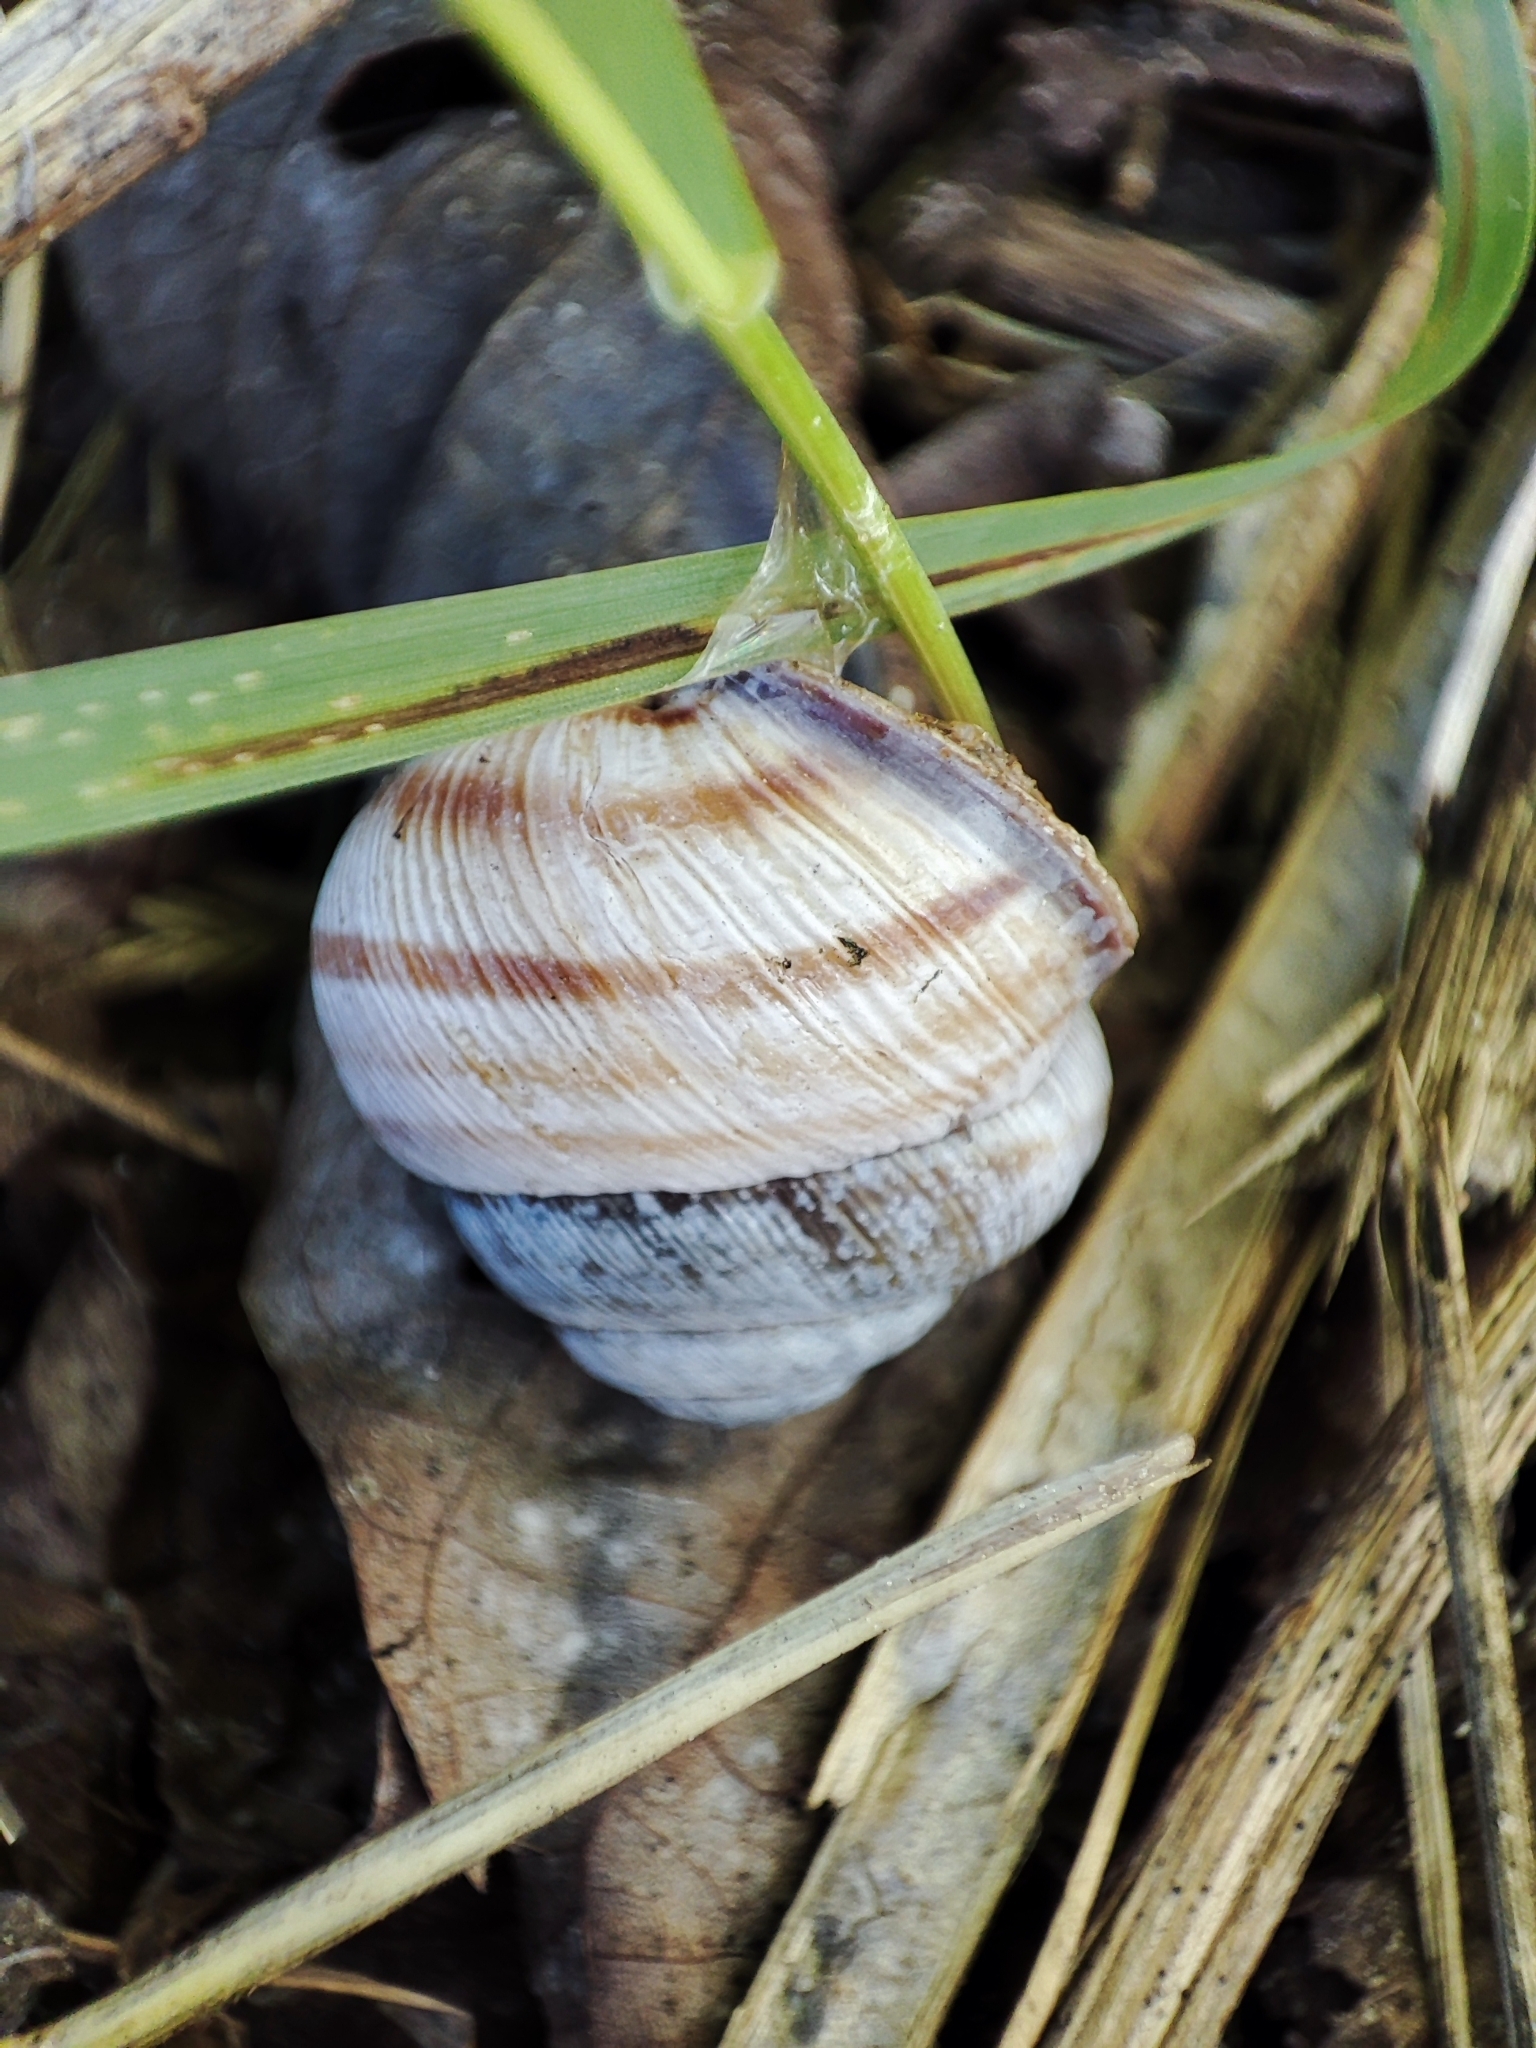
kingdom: Animalia
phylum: Mollusca
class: Gastropoda
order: Stylommatophora
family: Helicidae
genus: Caucasotachea
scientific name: Caucasotachea vindobonensis
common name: European helicid land snail
